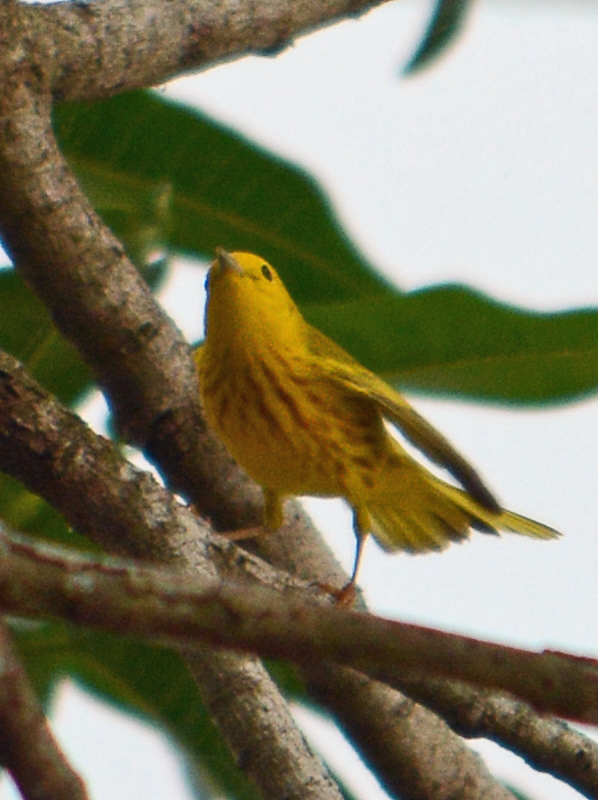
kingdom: Animalia
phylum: Chordata
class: Aves
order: Passeriformes
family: Parulidae
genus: Setophaga
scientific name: Setophaga petechia
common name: Yellow warbler
